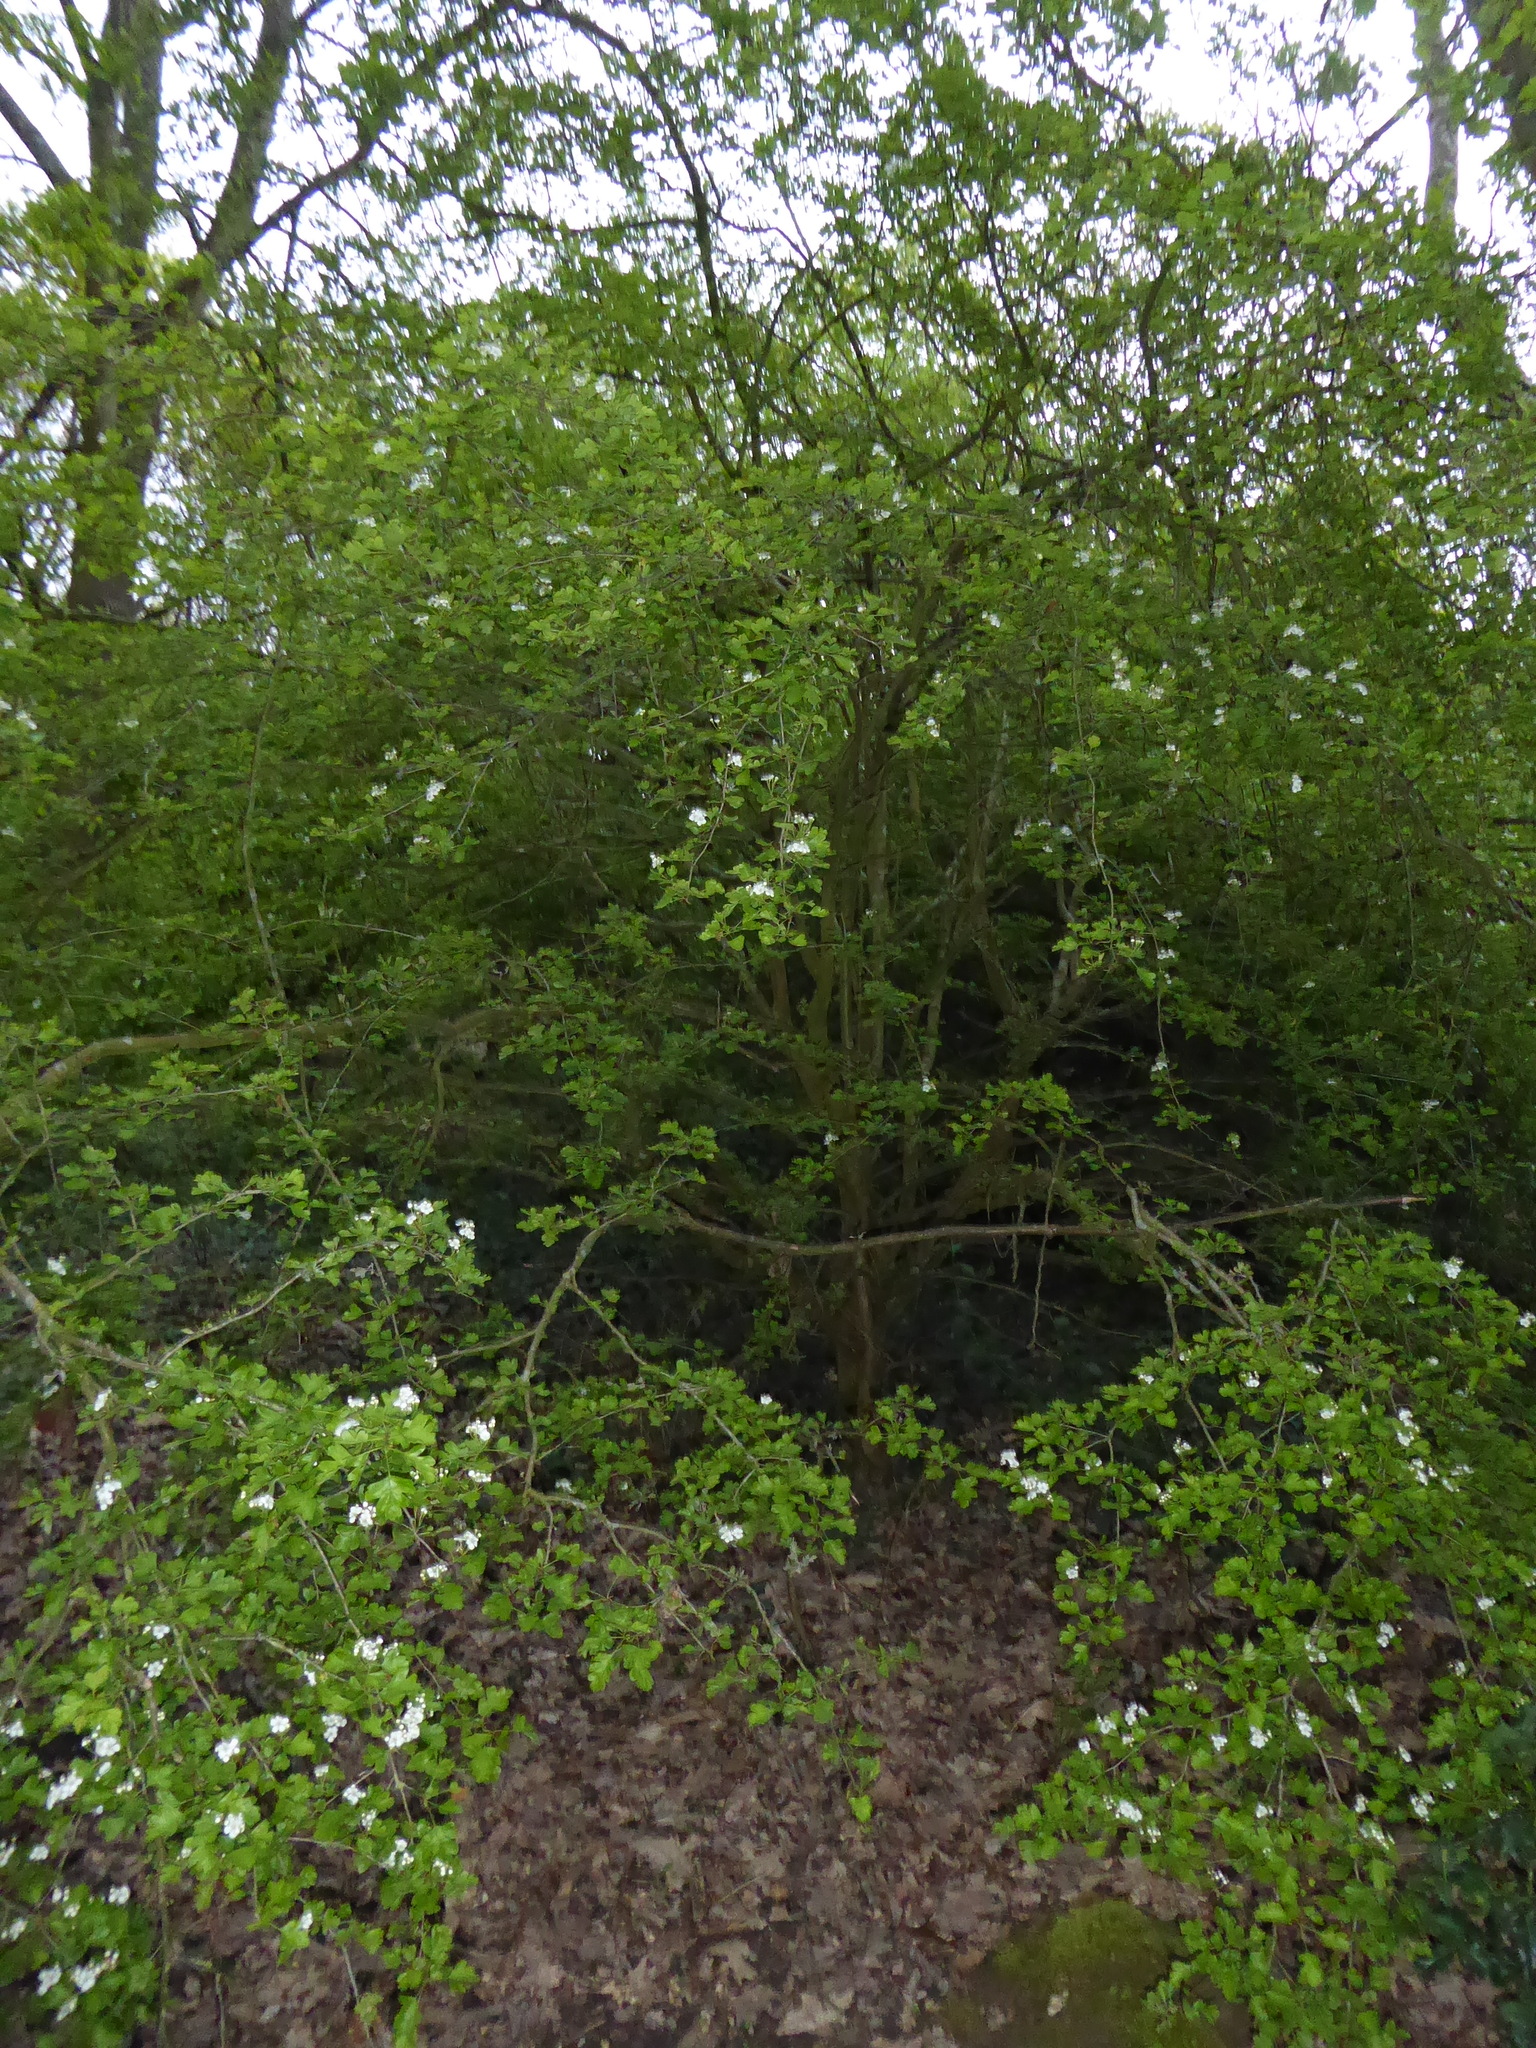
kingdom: Plantae
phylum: Tracheophyta
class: Magnoliopsida
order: Rosales
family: Rosaceae
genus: Crataegus
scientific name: Crataegus monogyna
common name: Hawthorn
